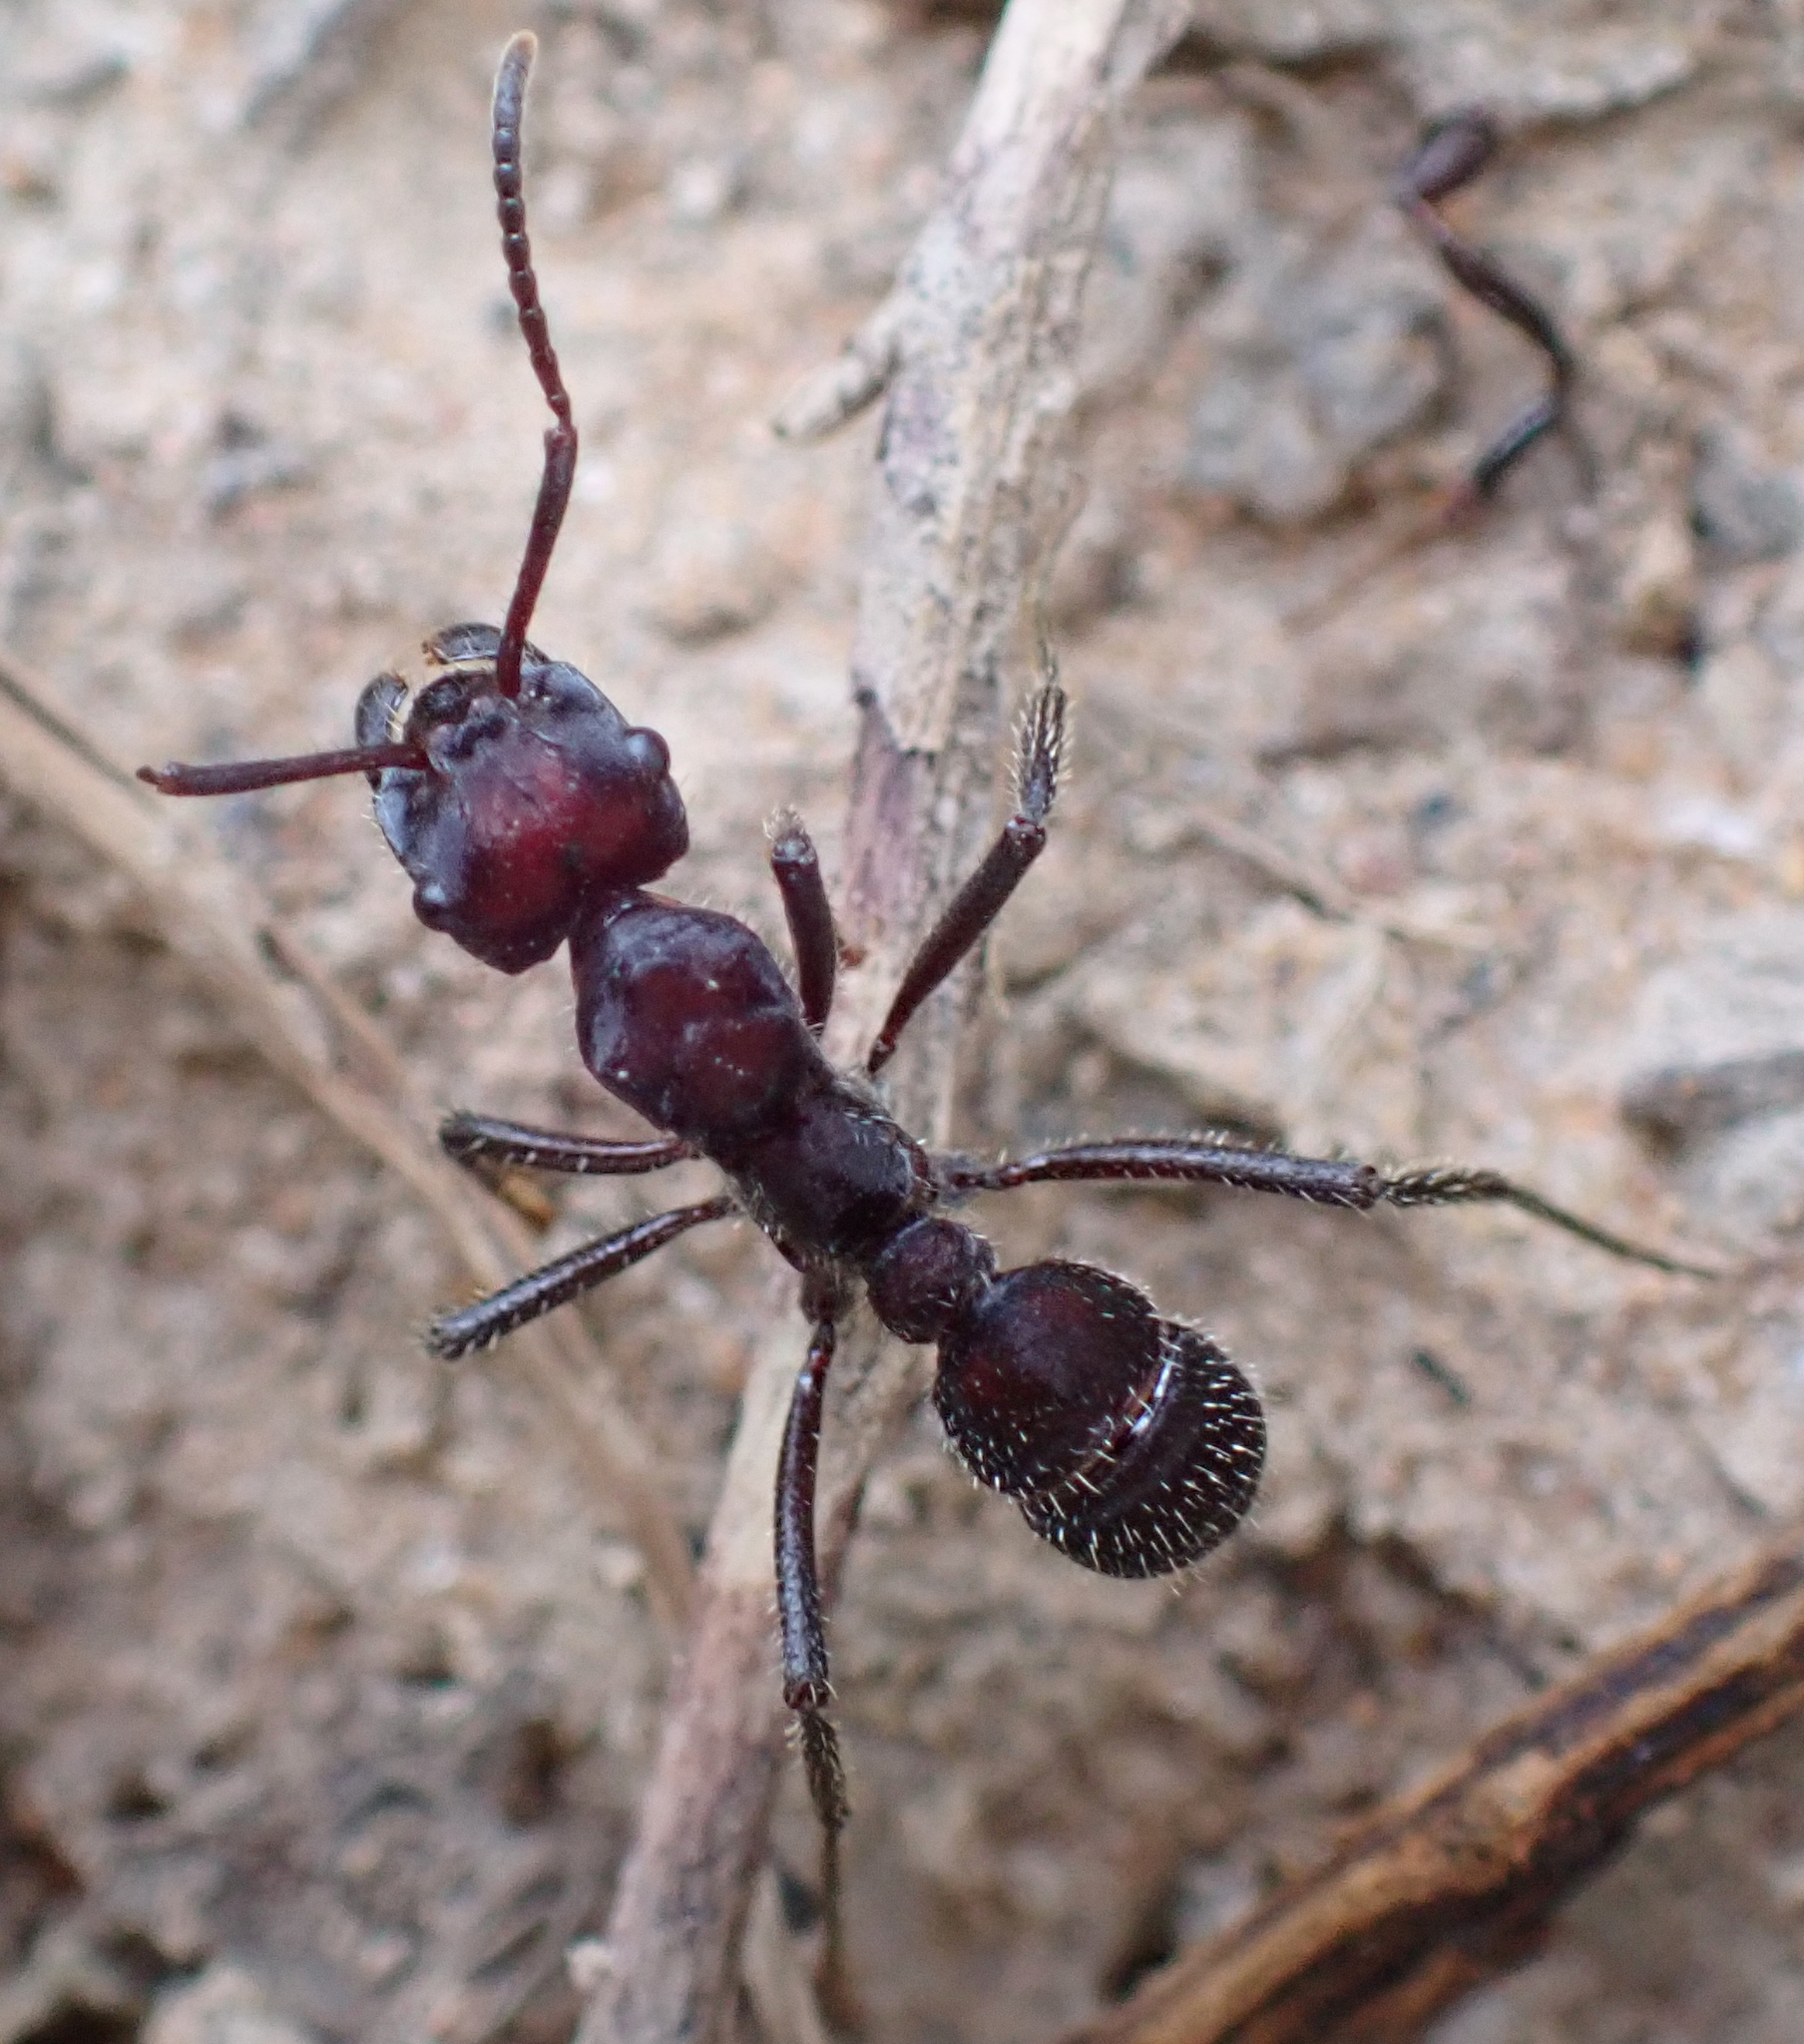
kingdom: Animalia
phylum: Arthropoda
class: Insecta
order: Hymenoptera
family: Formicidae
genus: Ectatomma
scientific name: Ectatomma brunneum
